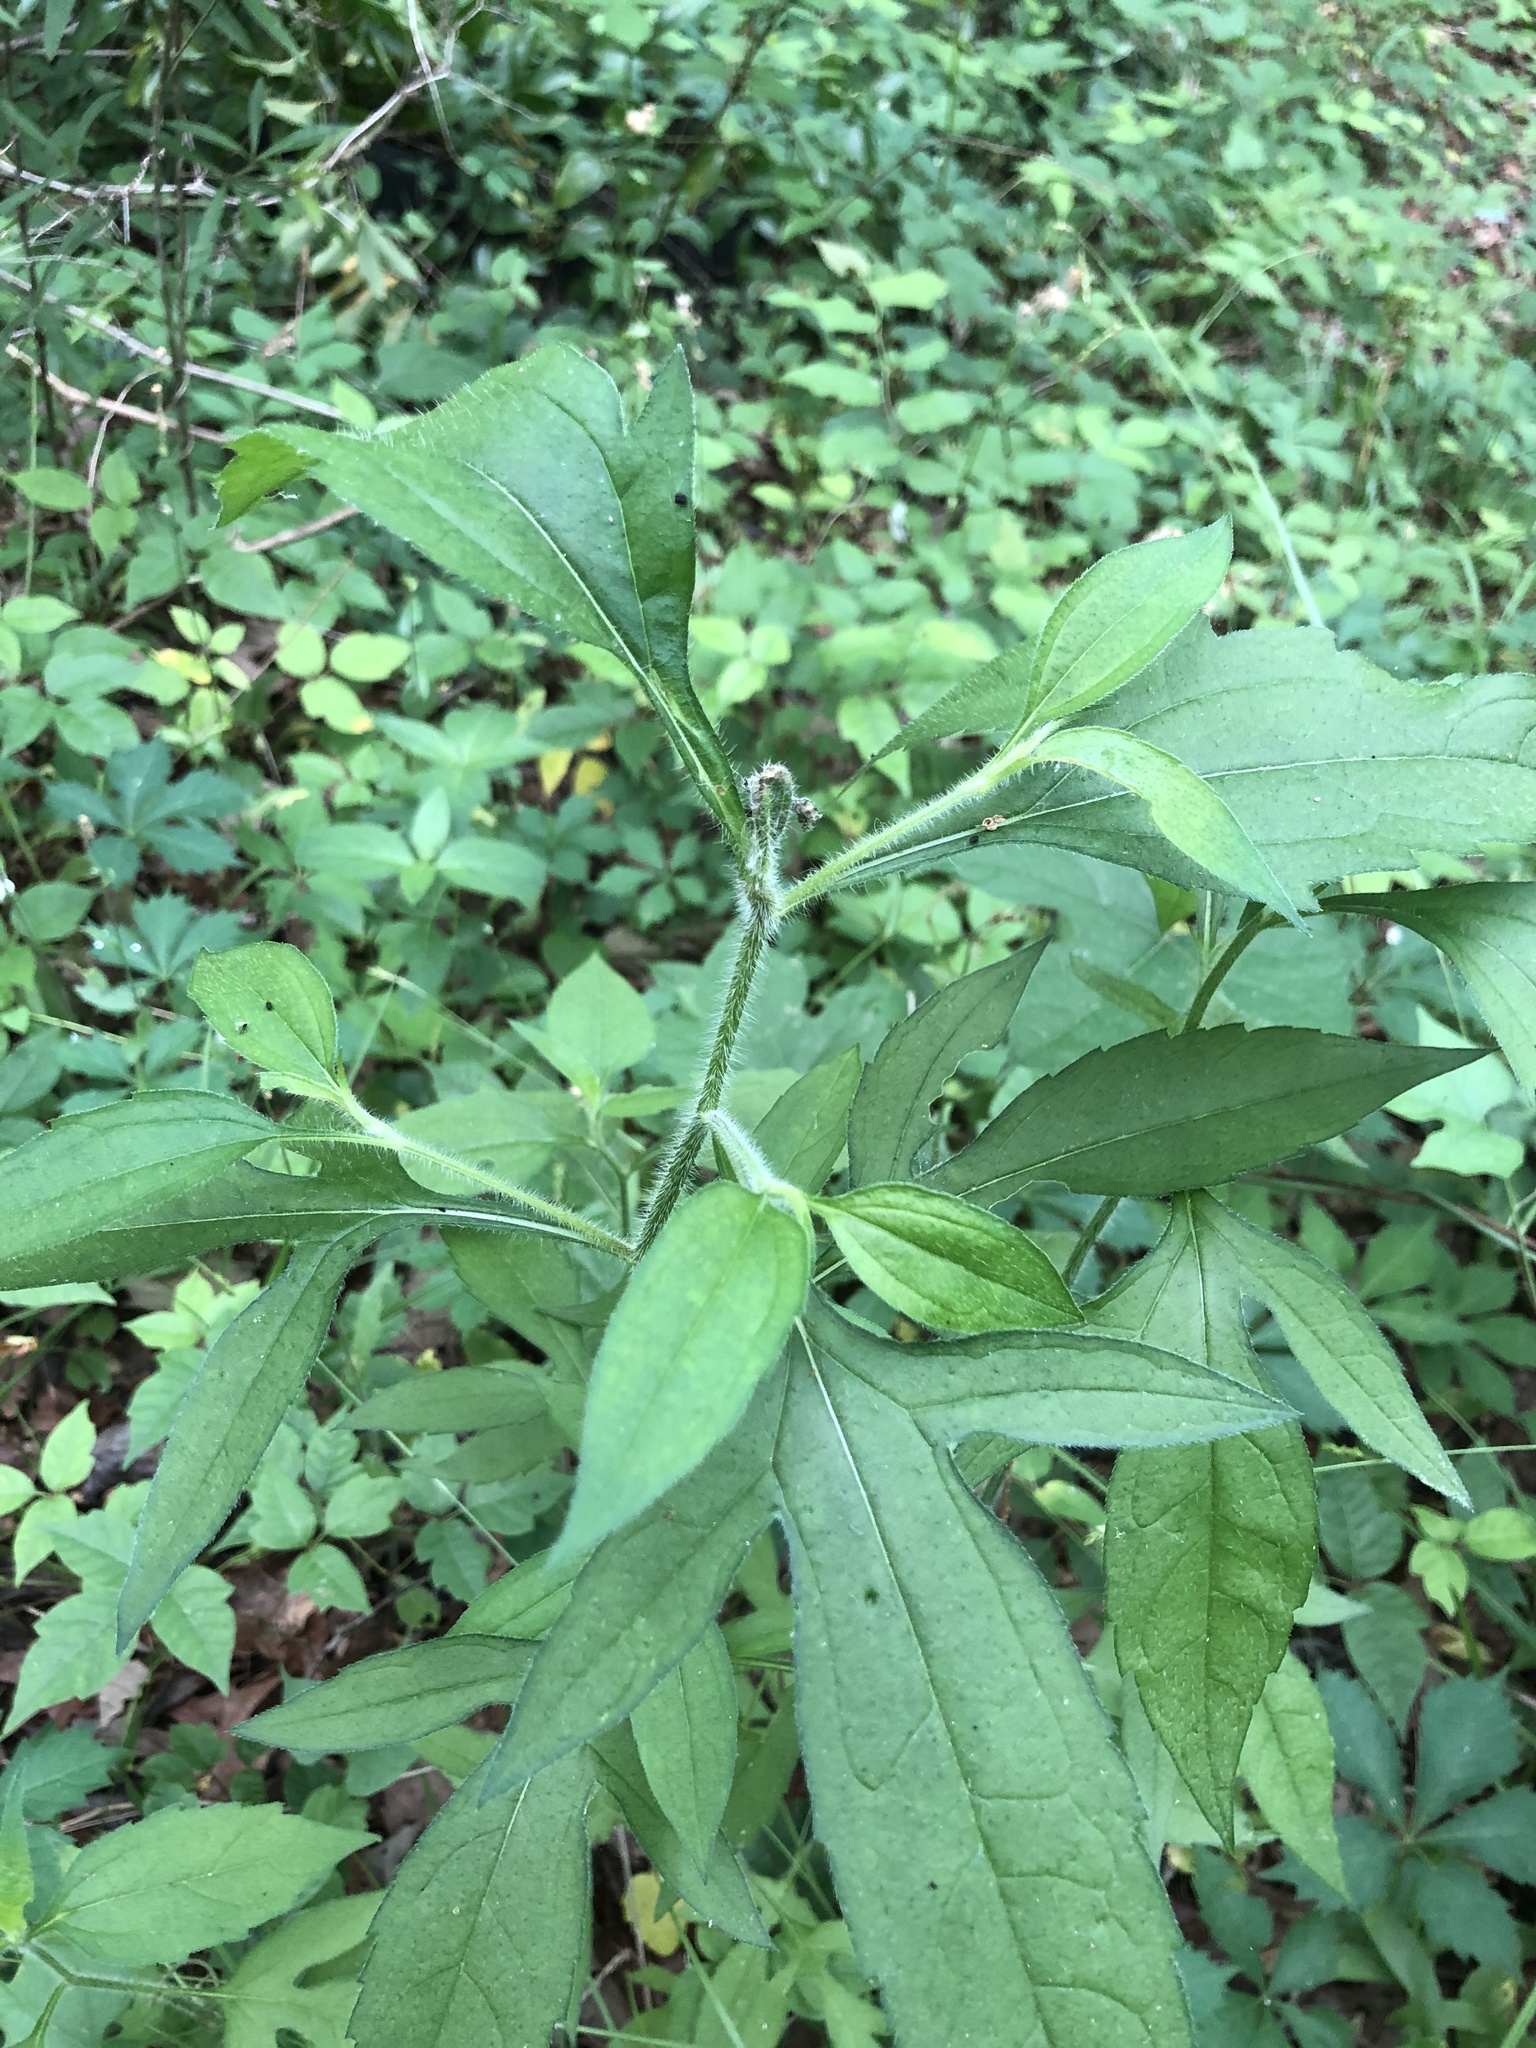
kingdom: Plantae
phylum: Tracheophyta
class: Magnoliopsida
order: Asterales
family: Asteraceae
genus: Rudbeckia
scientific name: Rudbeckia triloba
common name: Thin-leaved coneflower
